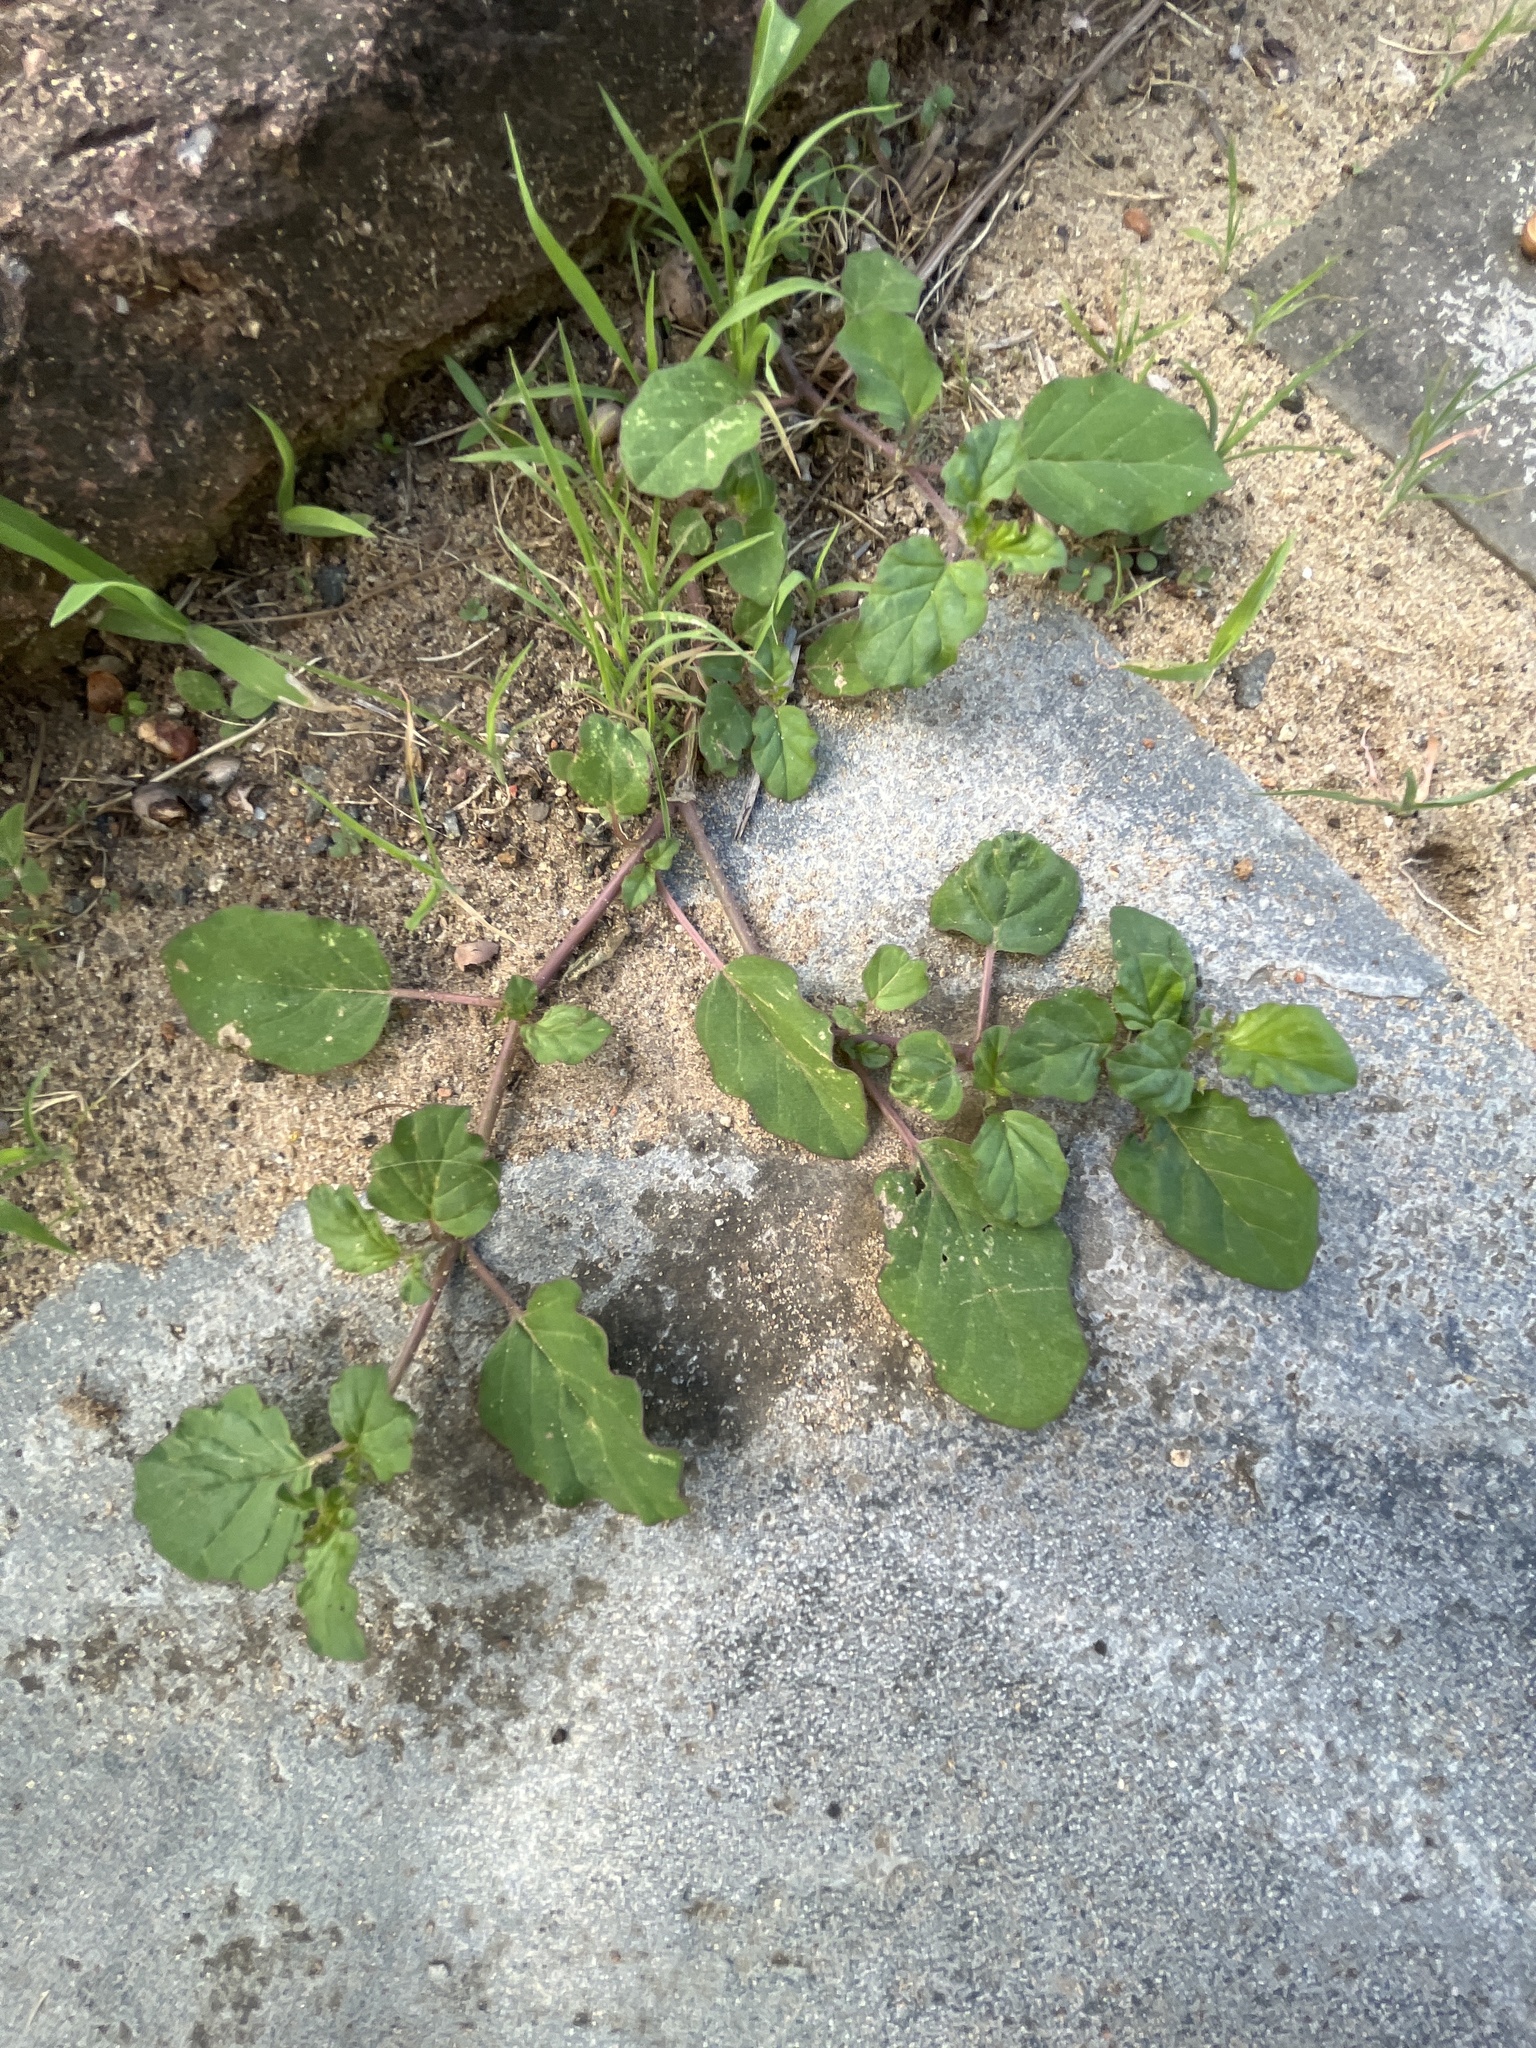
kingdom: Plantae
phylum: Tracheophyta
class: Magnoliopsida
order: Caryophyllales
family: Nyctaginaceae
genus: Boerhavia
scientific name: Boerhavia coccinea
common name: Scarlet spiderling
